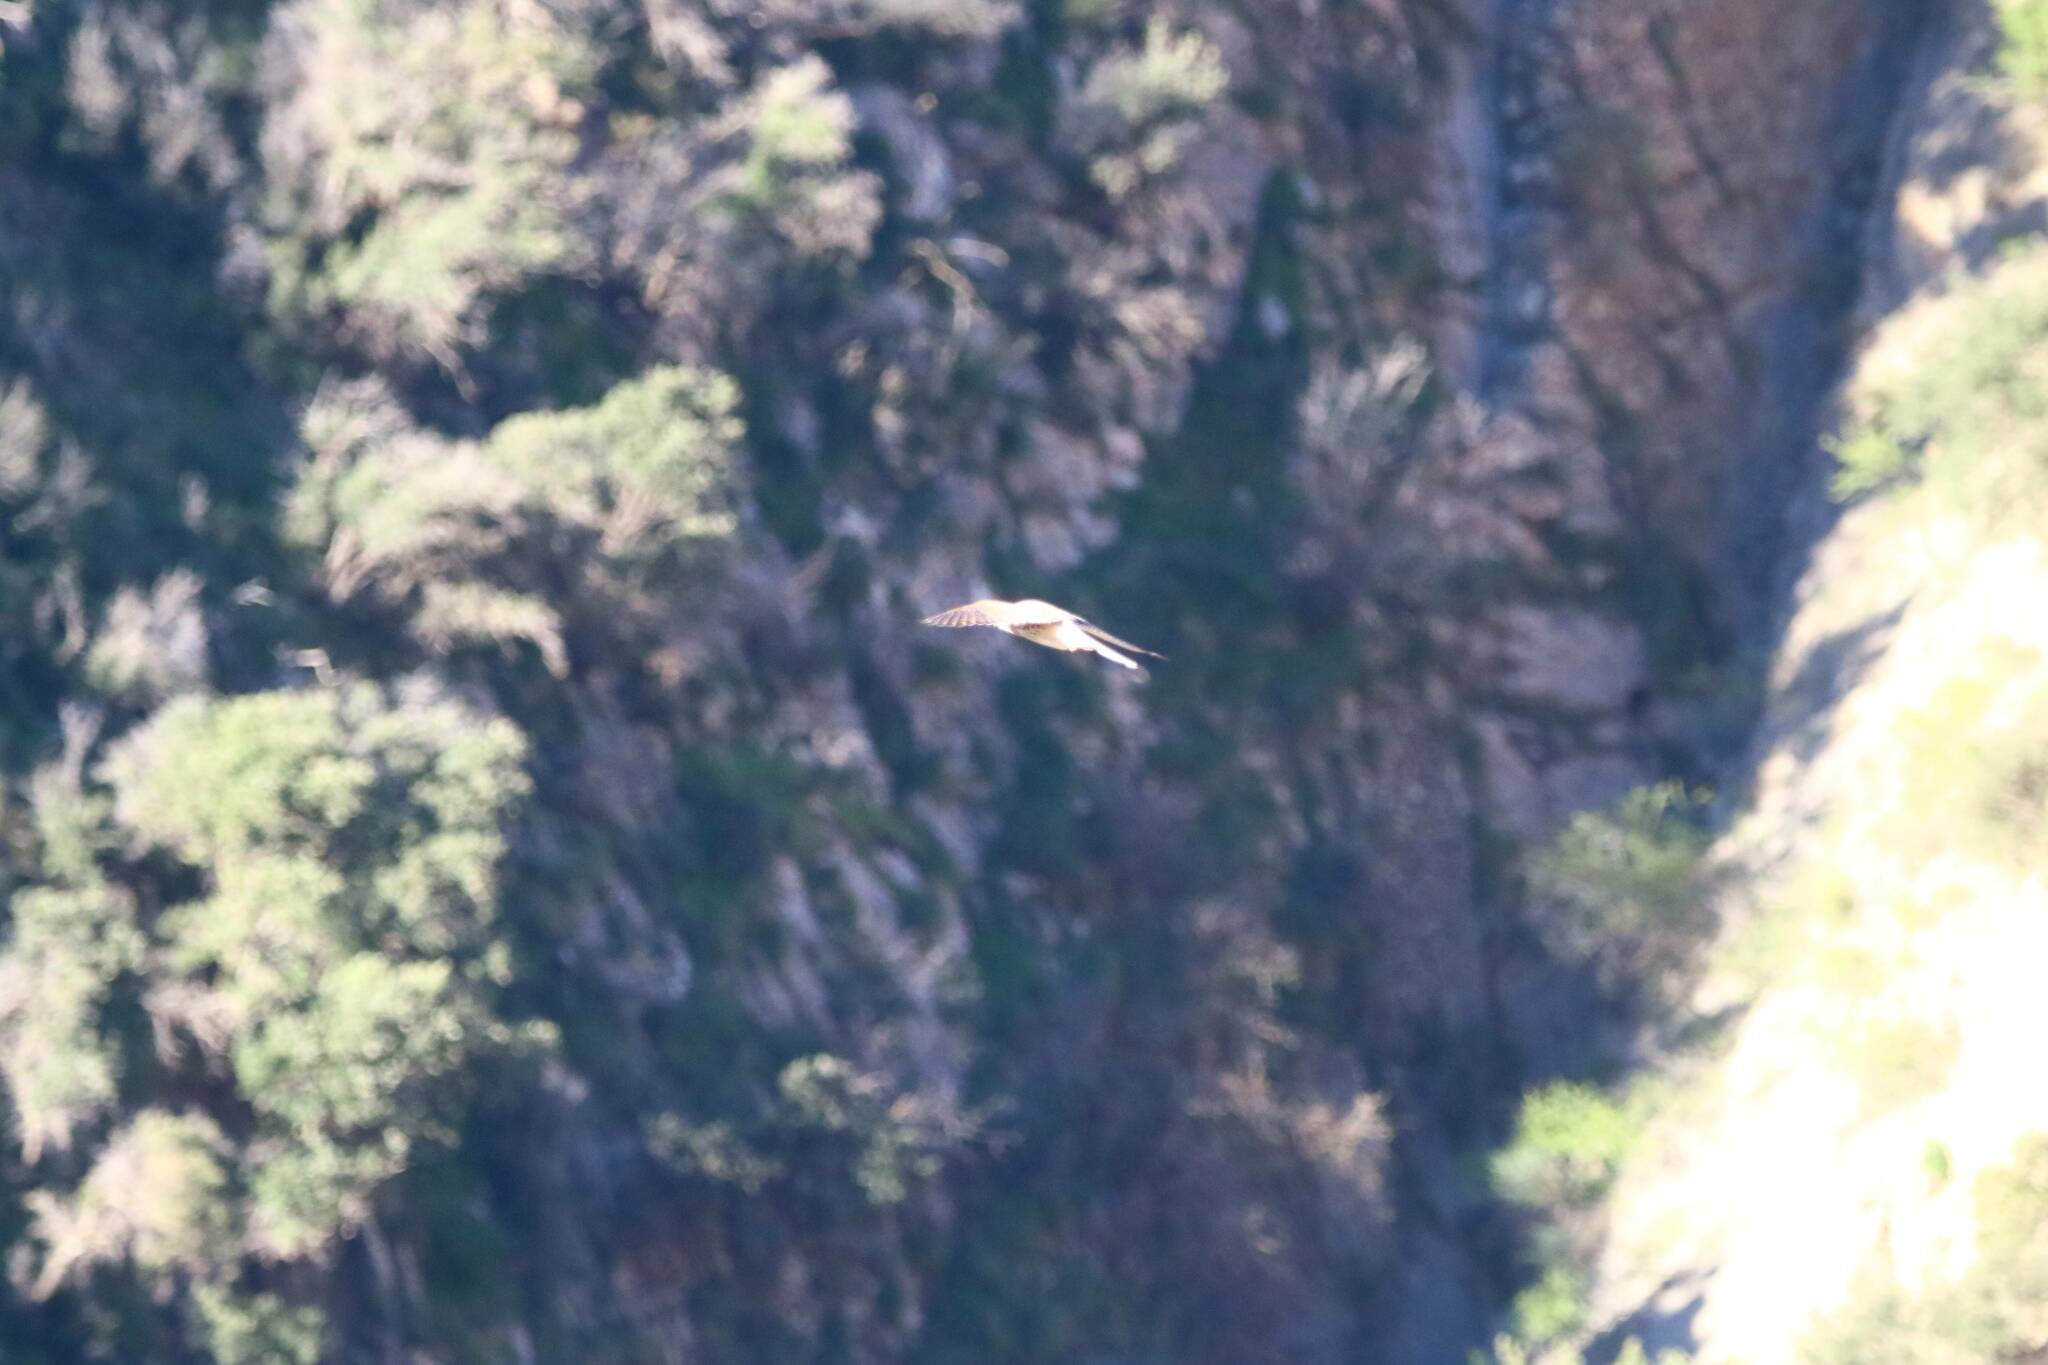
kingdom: Animalia
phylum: Chordata
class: Aves
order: Falconiformes
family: Falconidae
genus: Falco
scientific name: Falco naumanni
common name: Lesser kestrel
